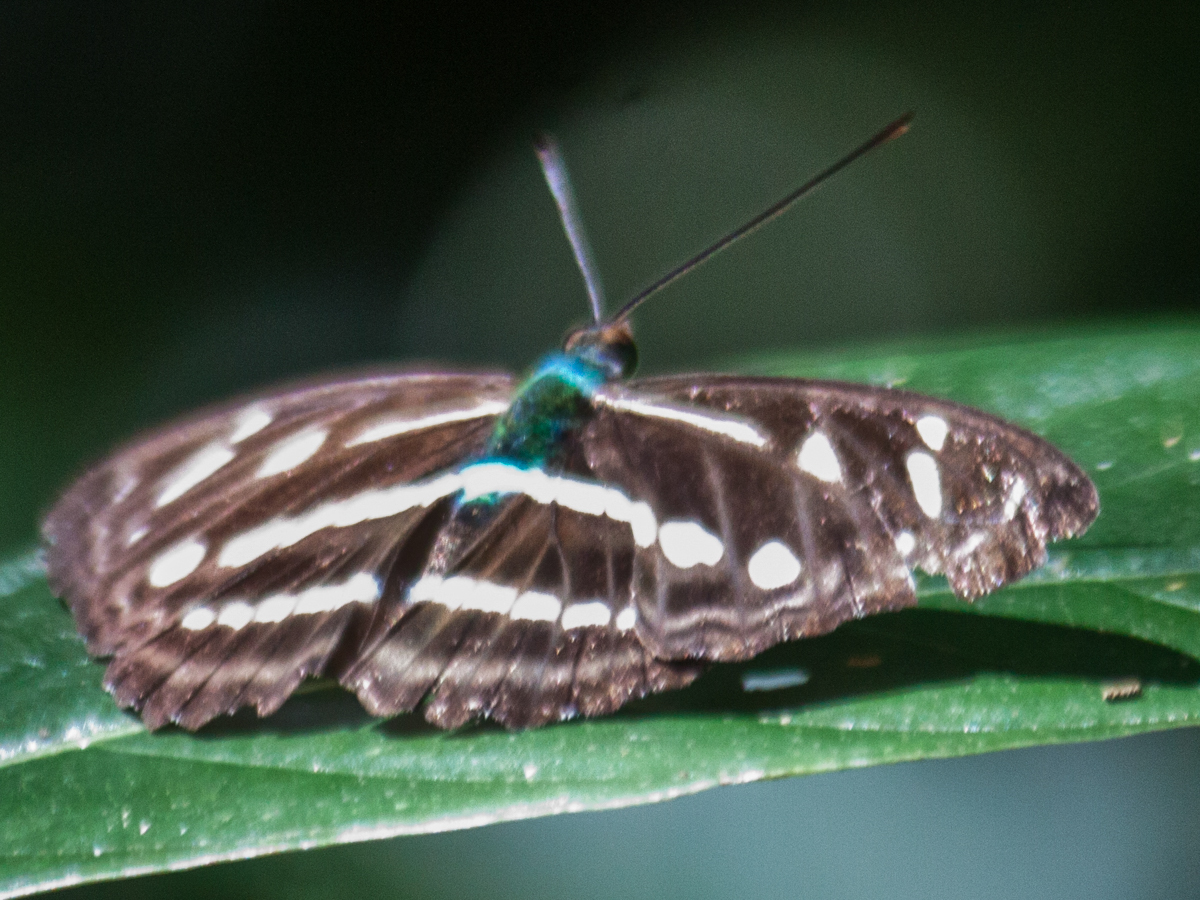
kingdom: Animalia
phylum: Arthropoda
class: Insecta
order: Lepidoptera
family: Nymphalidae
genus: Parathyma
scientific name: Parathyma kanwa
